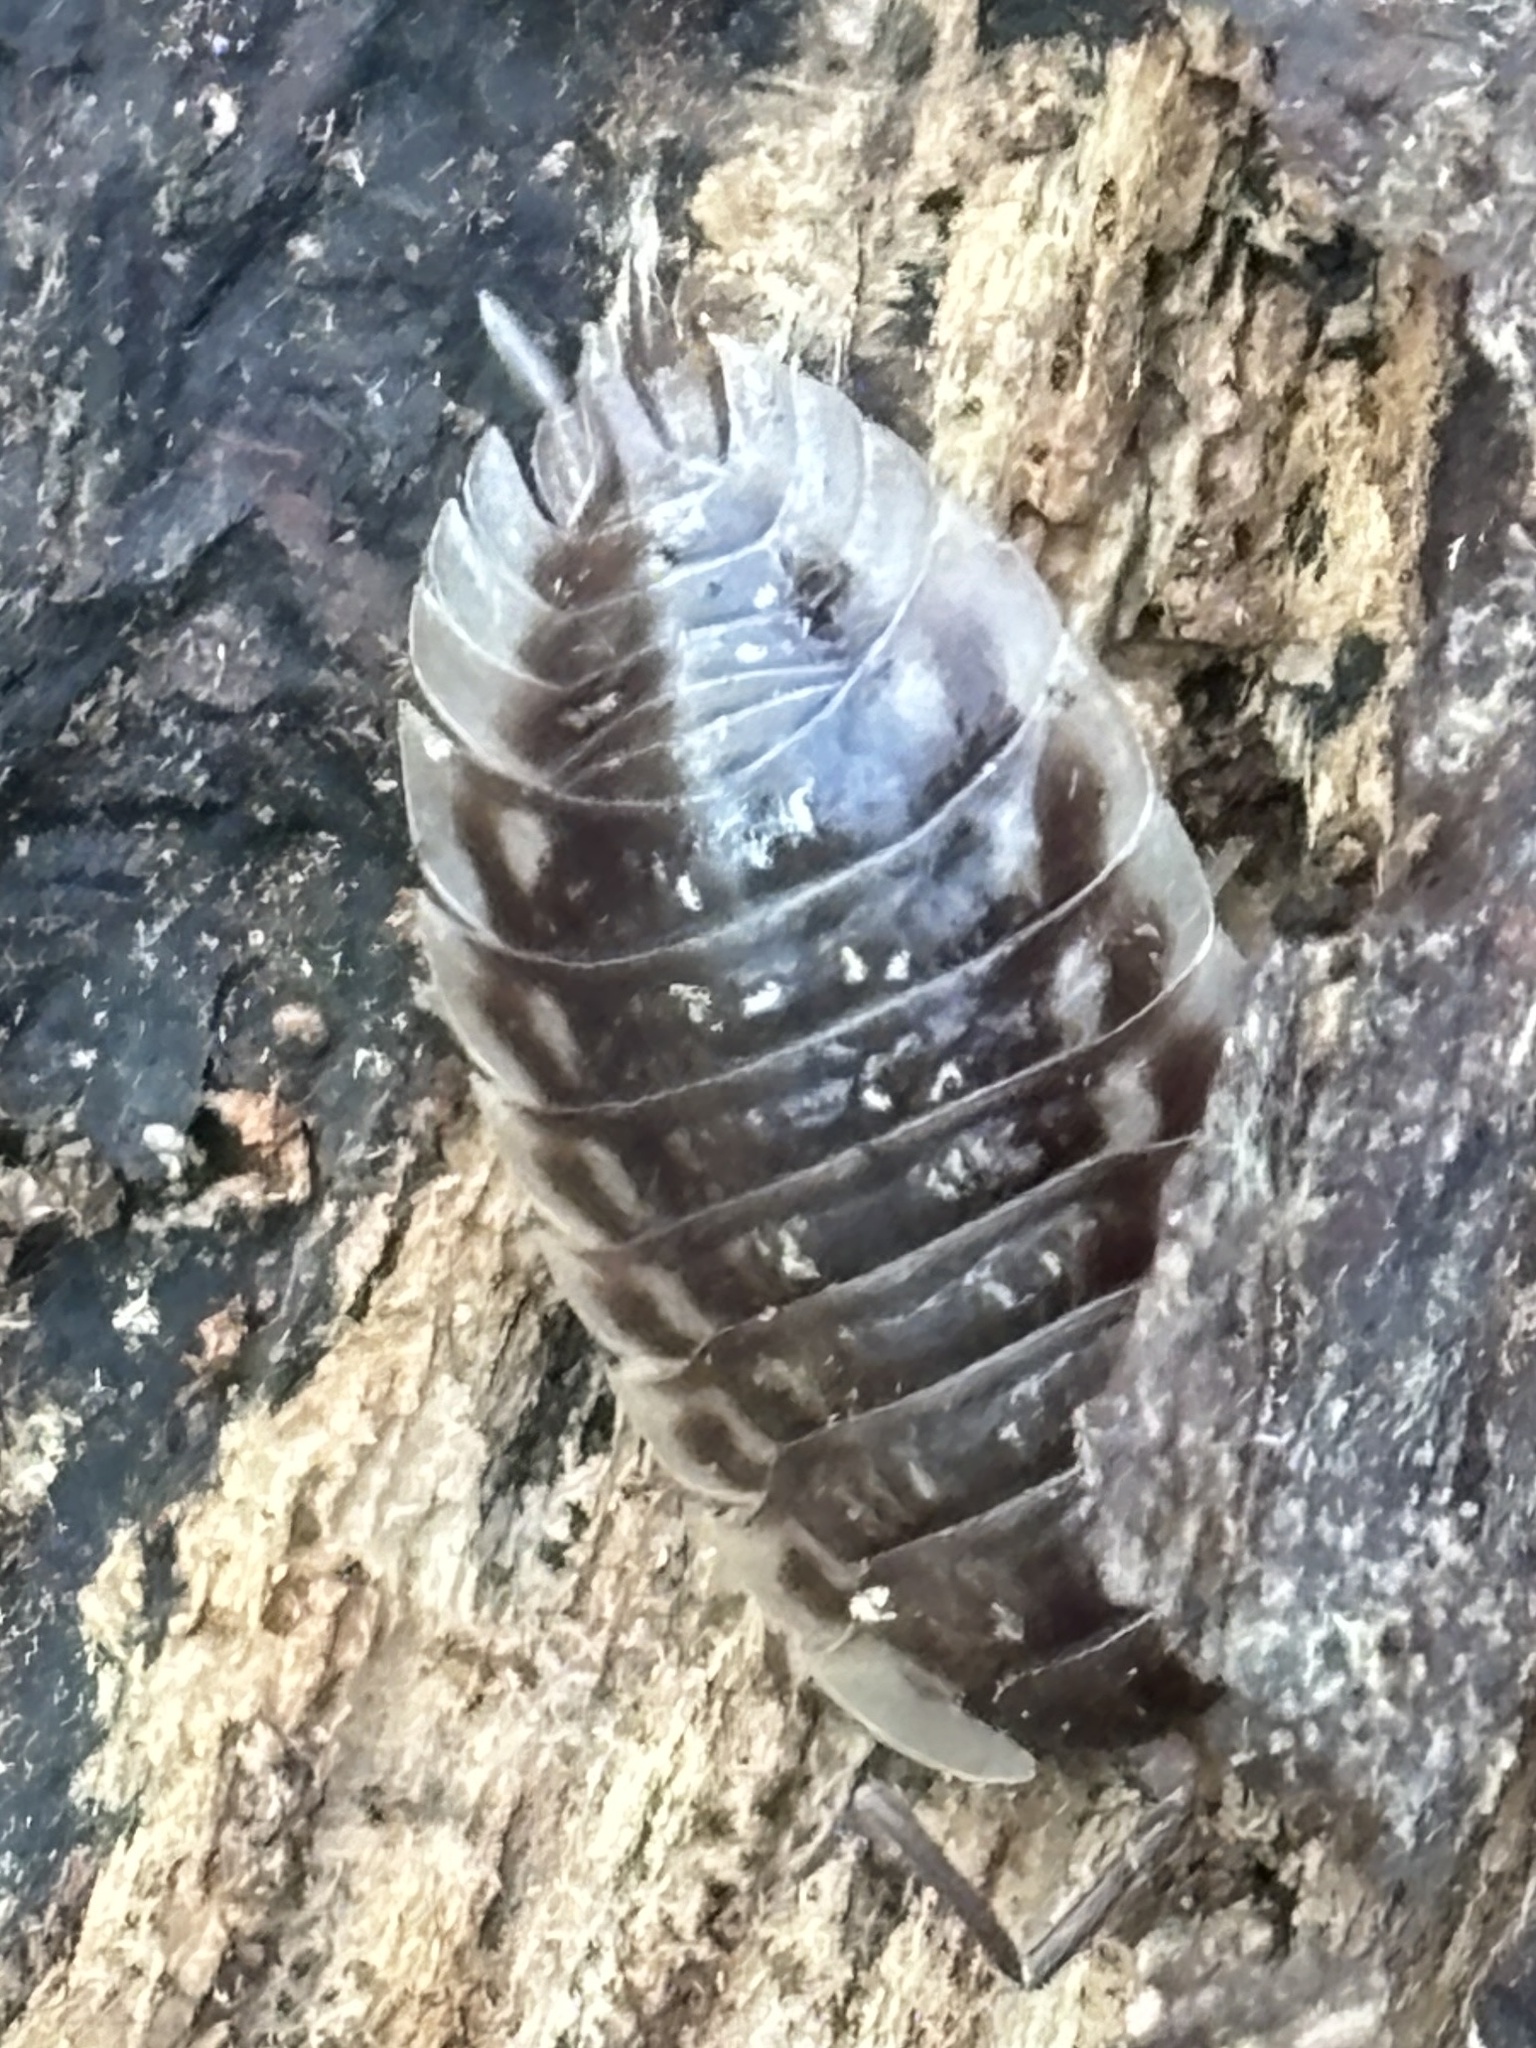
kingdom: Animalia
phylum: Arthropoda
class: Malacostraca
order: Isopoda
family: Oniscidae
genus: Oniscus
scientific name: Oniscus asellus
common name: Common shiny woodlouse
